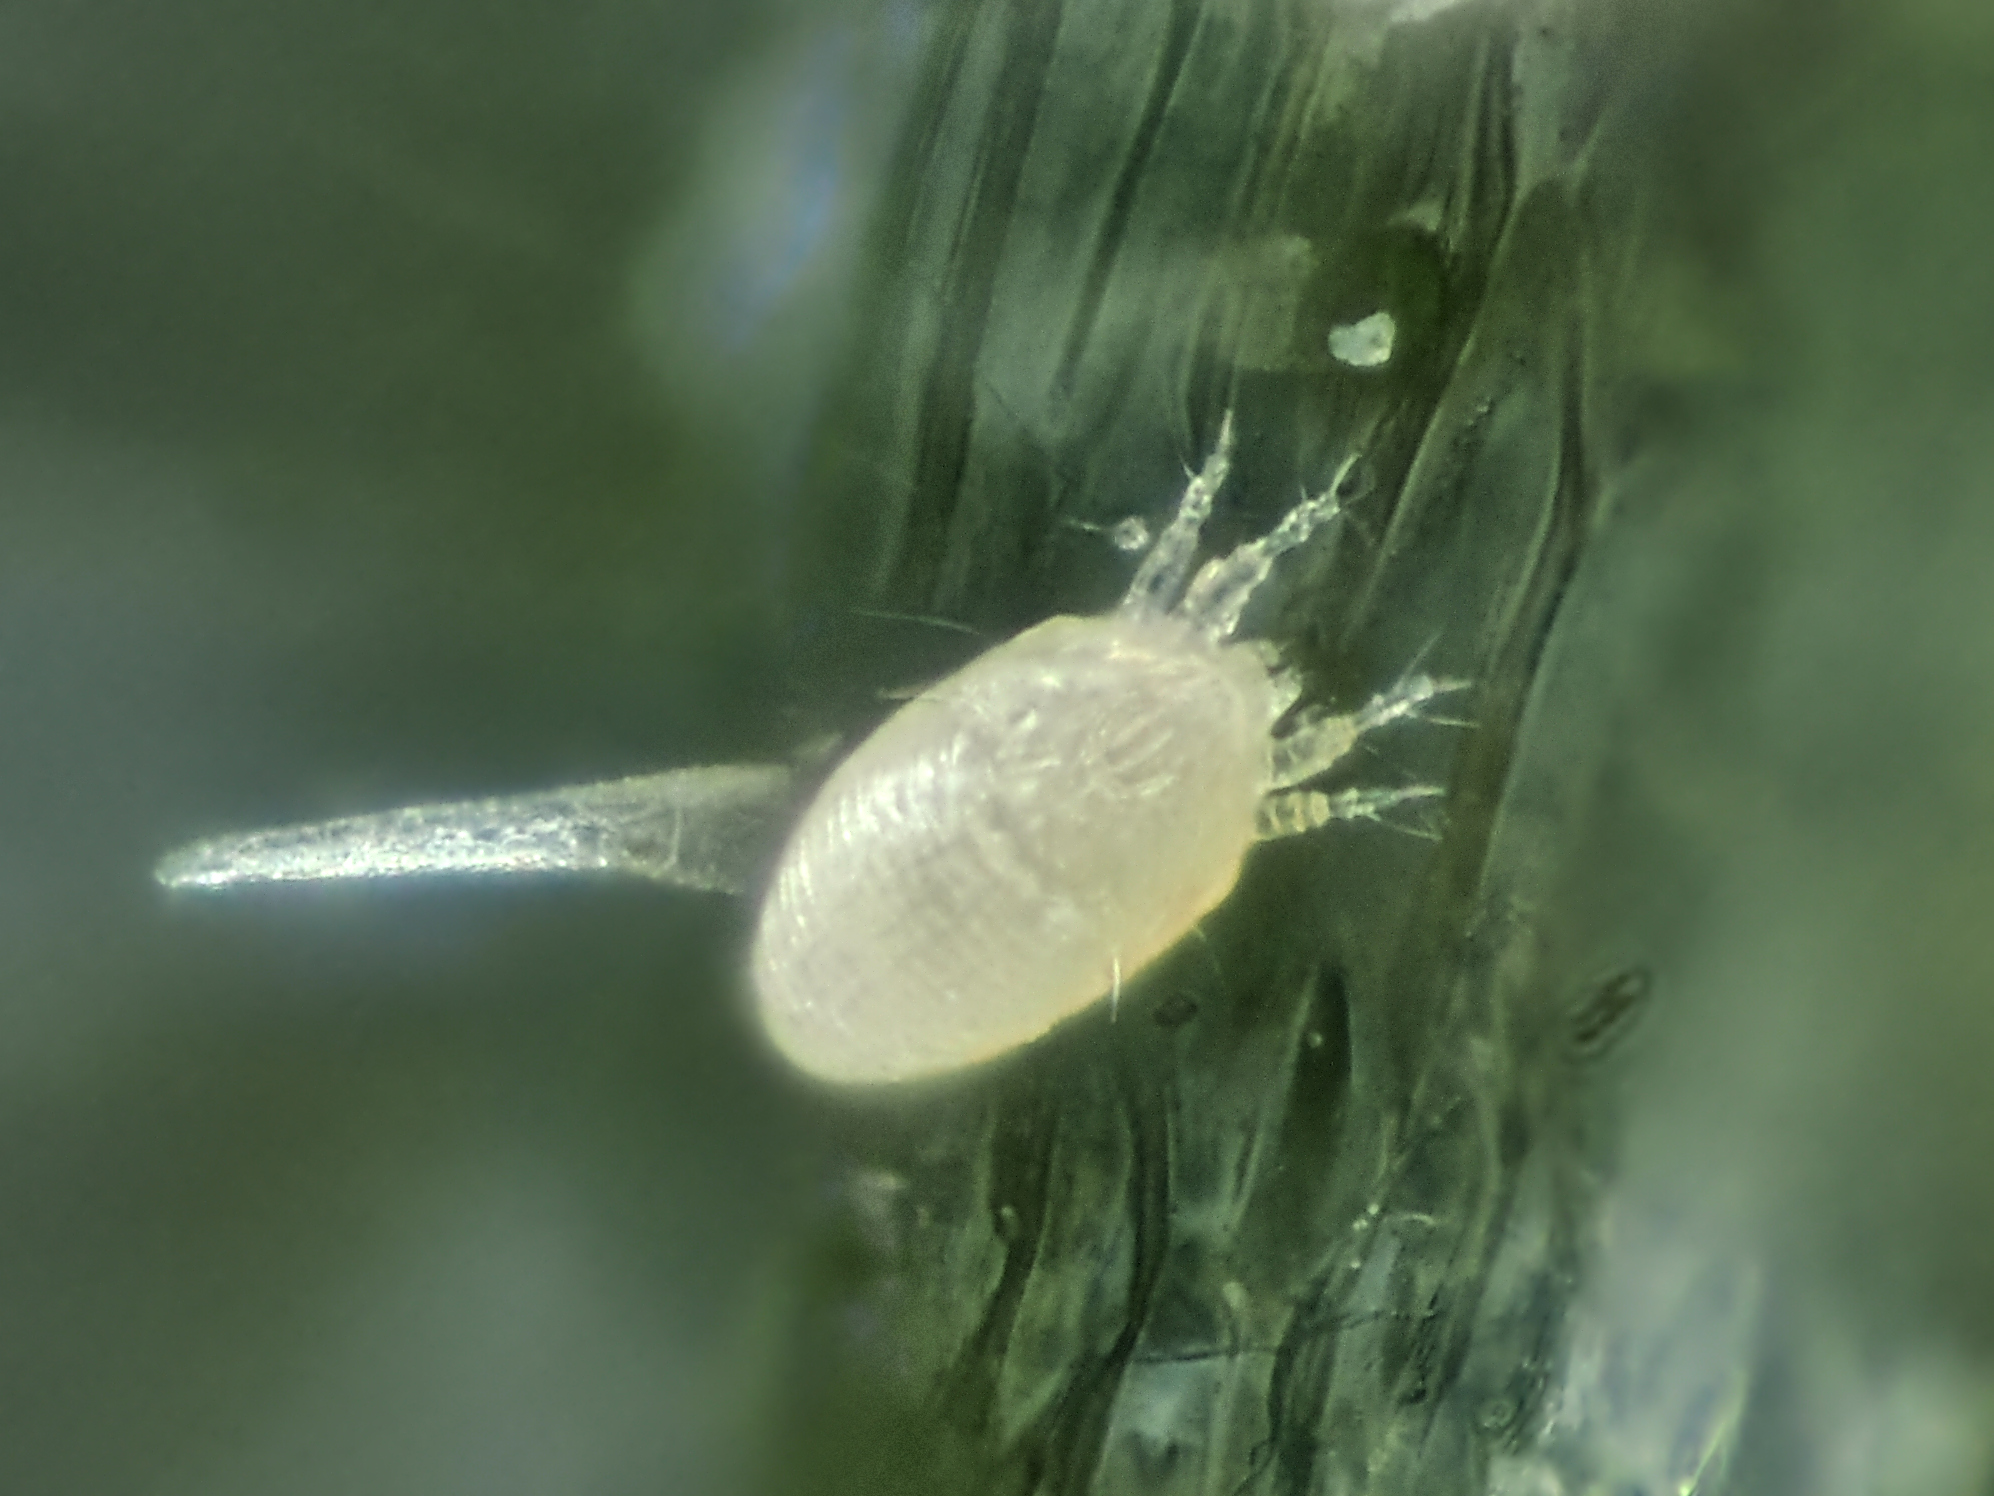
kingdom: Animalia
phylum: Arthropoda
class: Arachnida
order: Trombidiformes
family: Eriophyidae
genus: Aculops
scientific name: Aculops lycopersici
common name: Tomato russet mite
